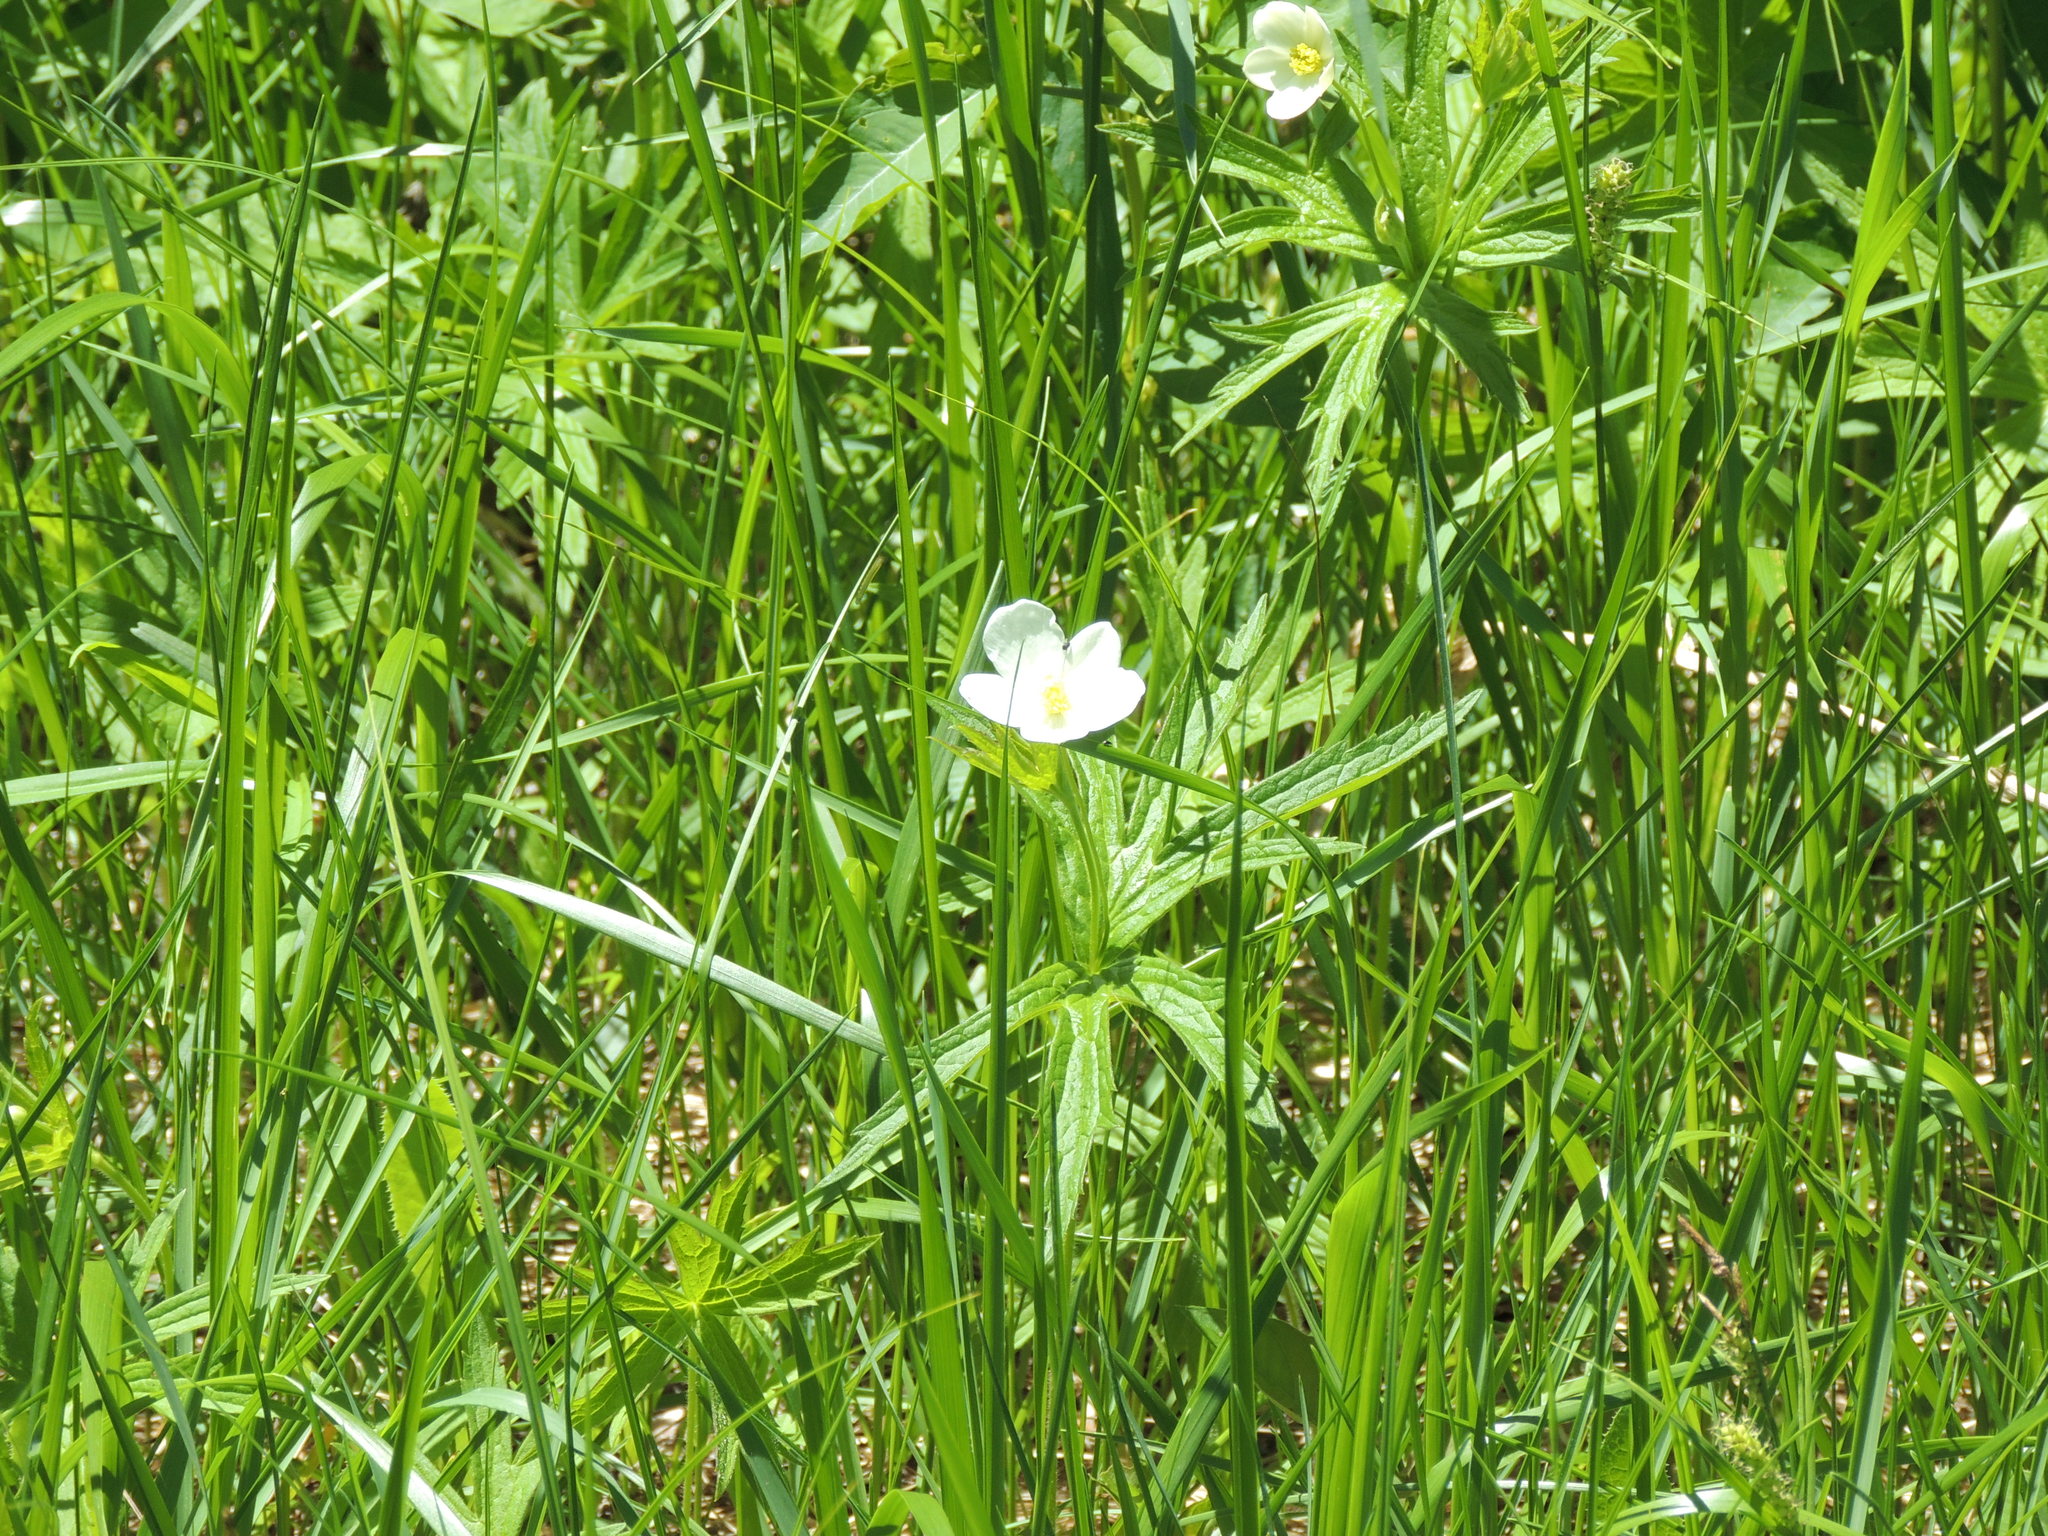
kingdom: Plantae
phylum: Tracheophyta
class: Magnoliopsida
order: Ranunculales
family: Ranunculaceae
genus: Anemonastrum
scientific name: Anemonastrum canadense
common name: Canada anemone
